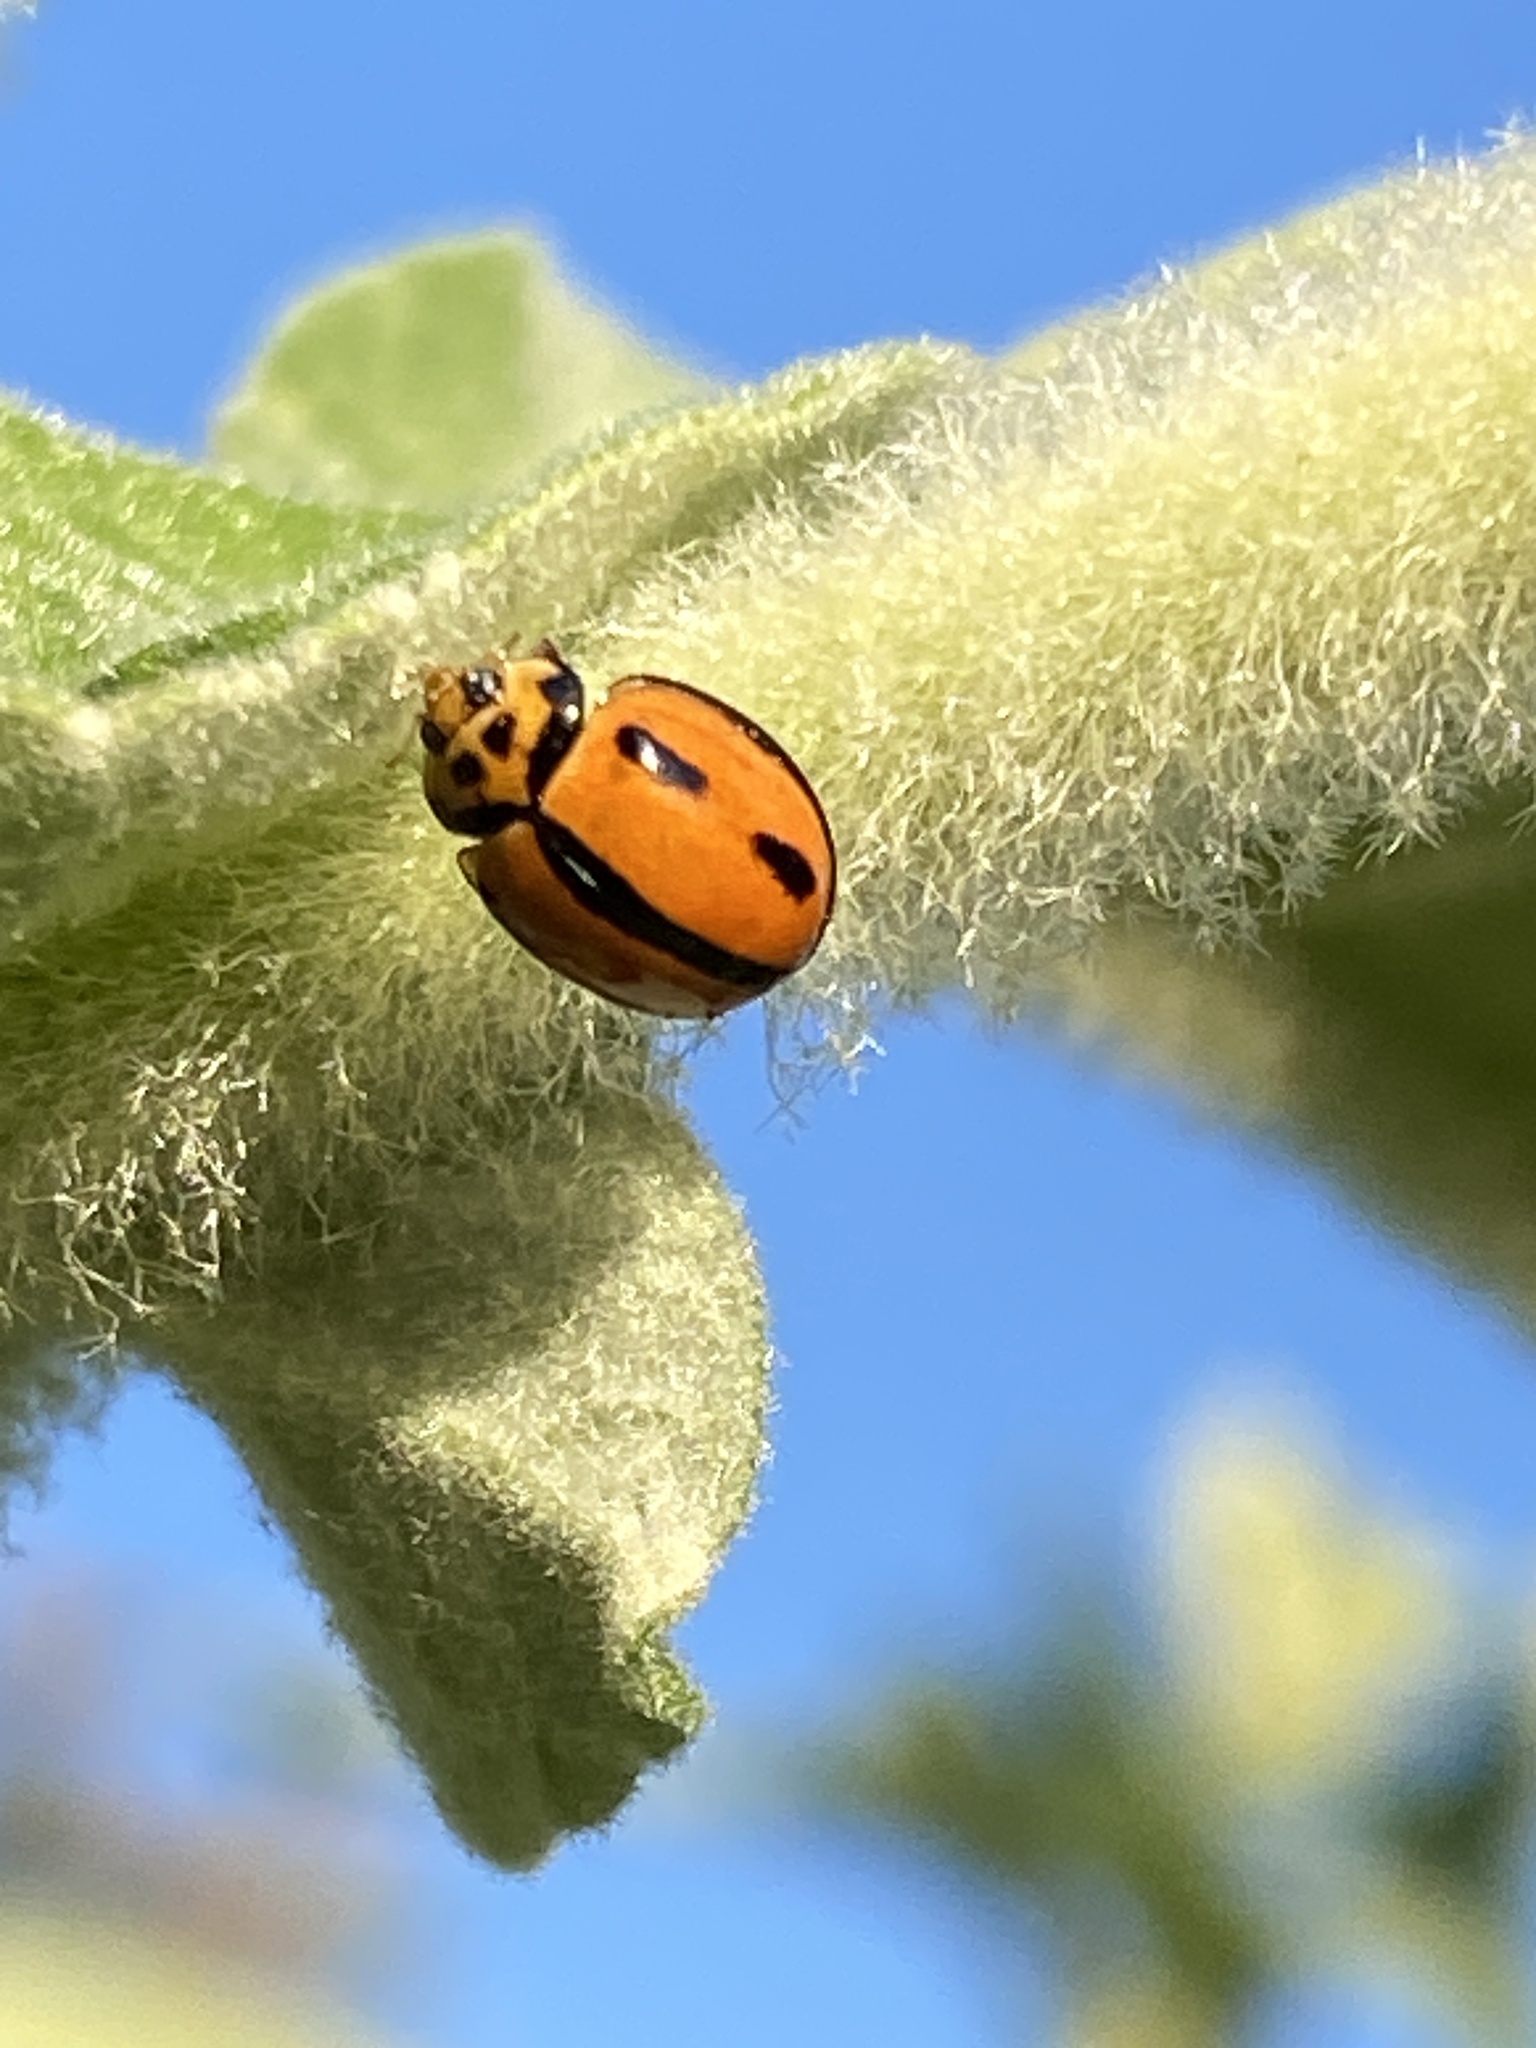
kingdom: Animalia
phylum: Arthropoda
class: Insecta
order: Coleoptera
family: Coccinellidae
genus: Coelophora
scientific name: Coelophora inaequalis
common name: Common australian lady beetle
